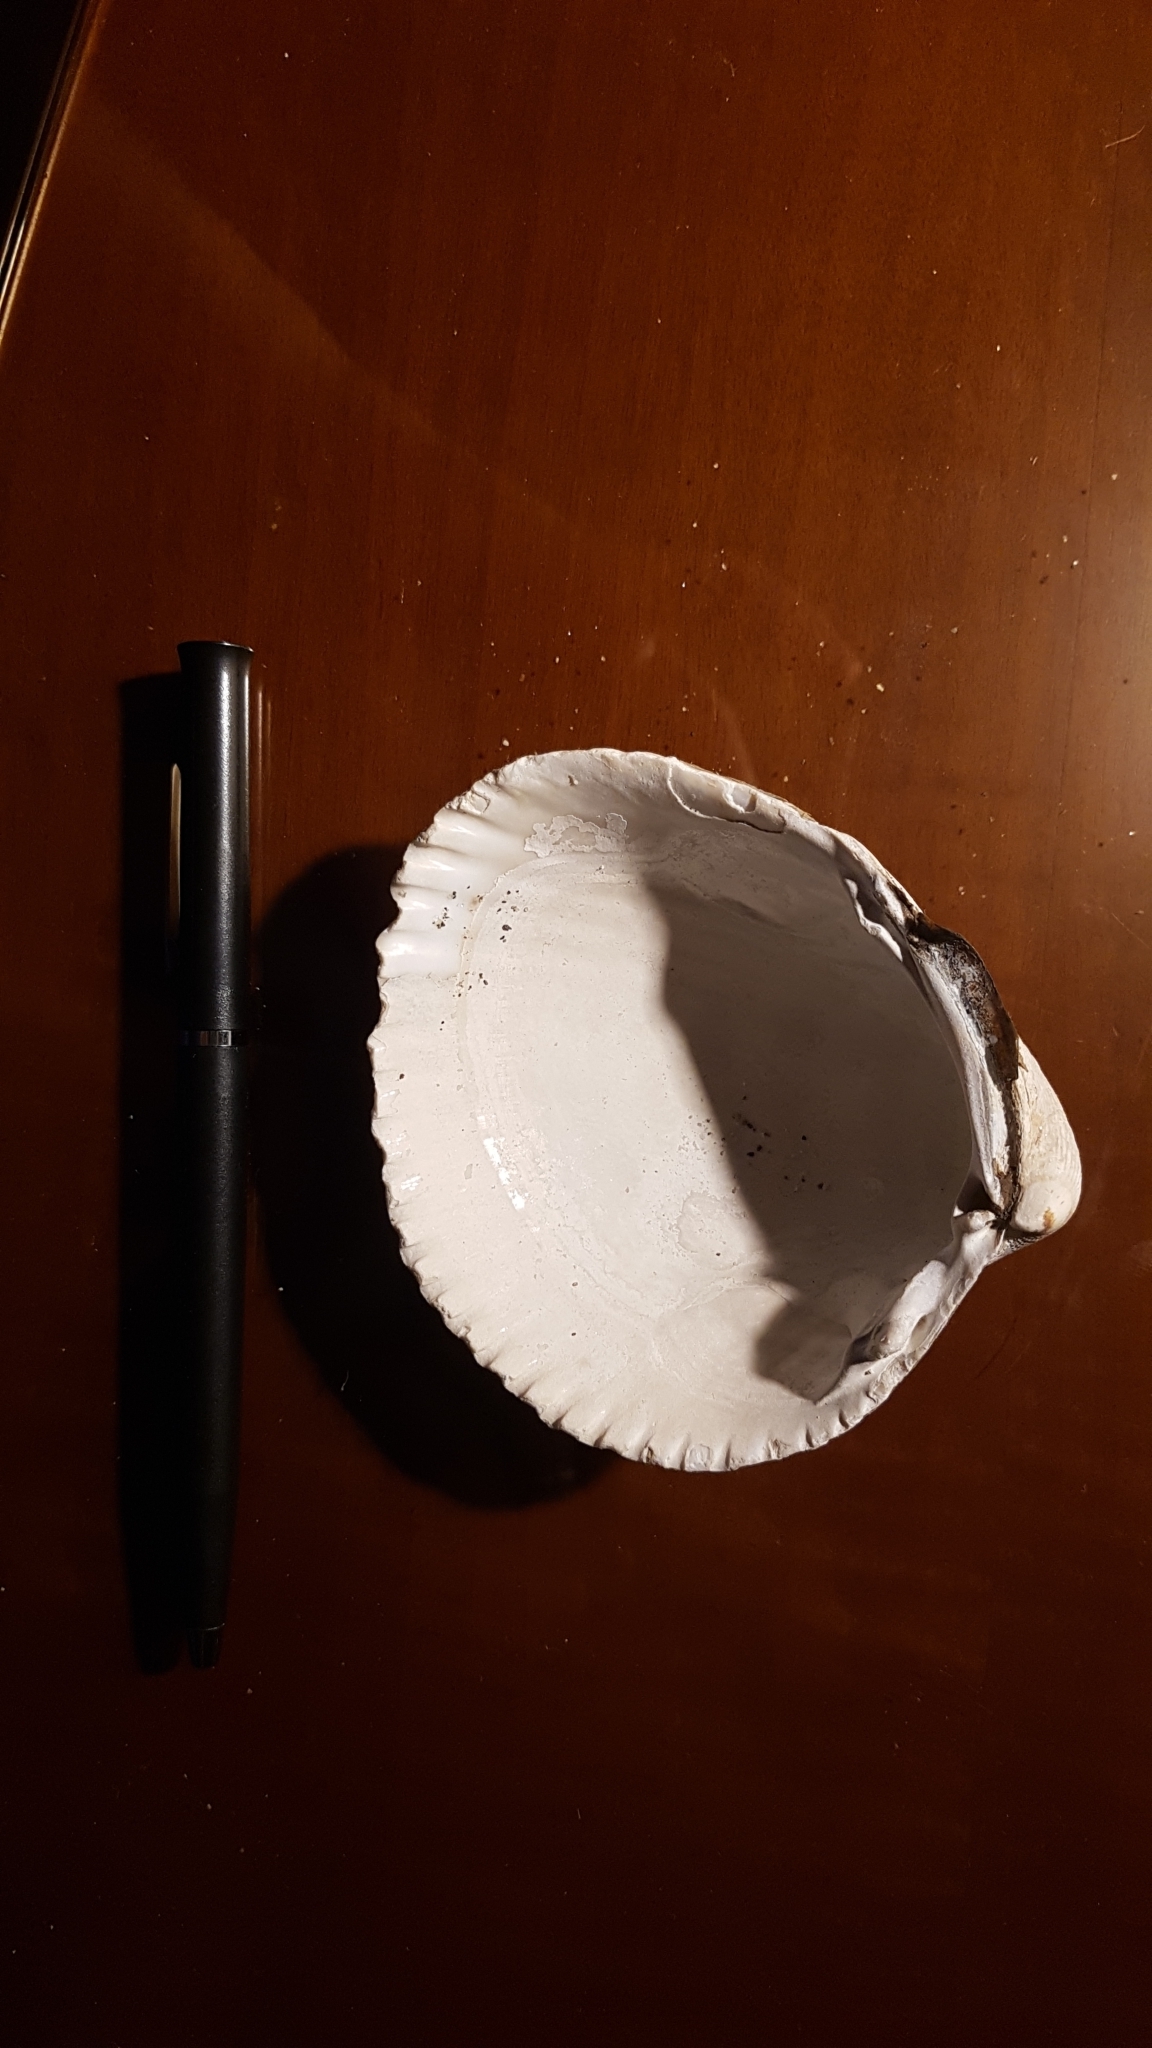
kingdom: Animalia
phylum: Mollusca
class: Bivalvia
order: Cardiida
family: Cardiidae
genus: Clinocardium
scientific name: Clinocardium nuttallii
